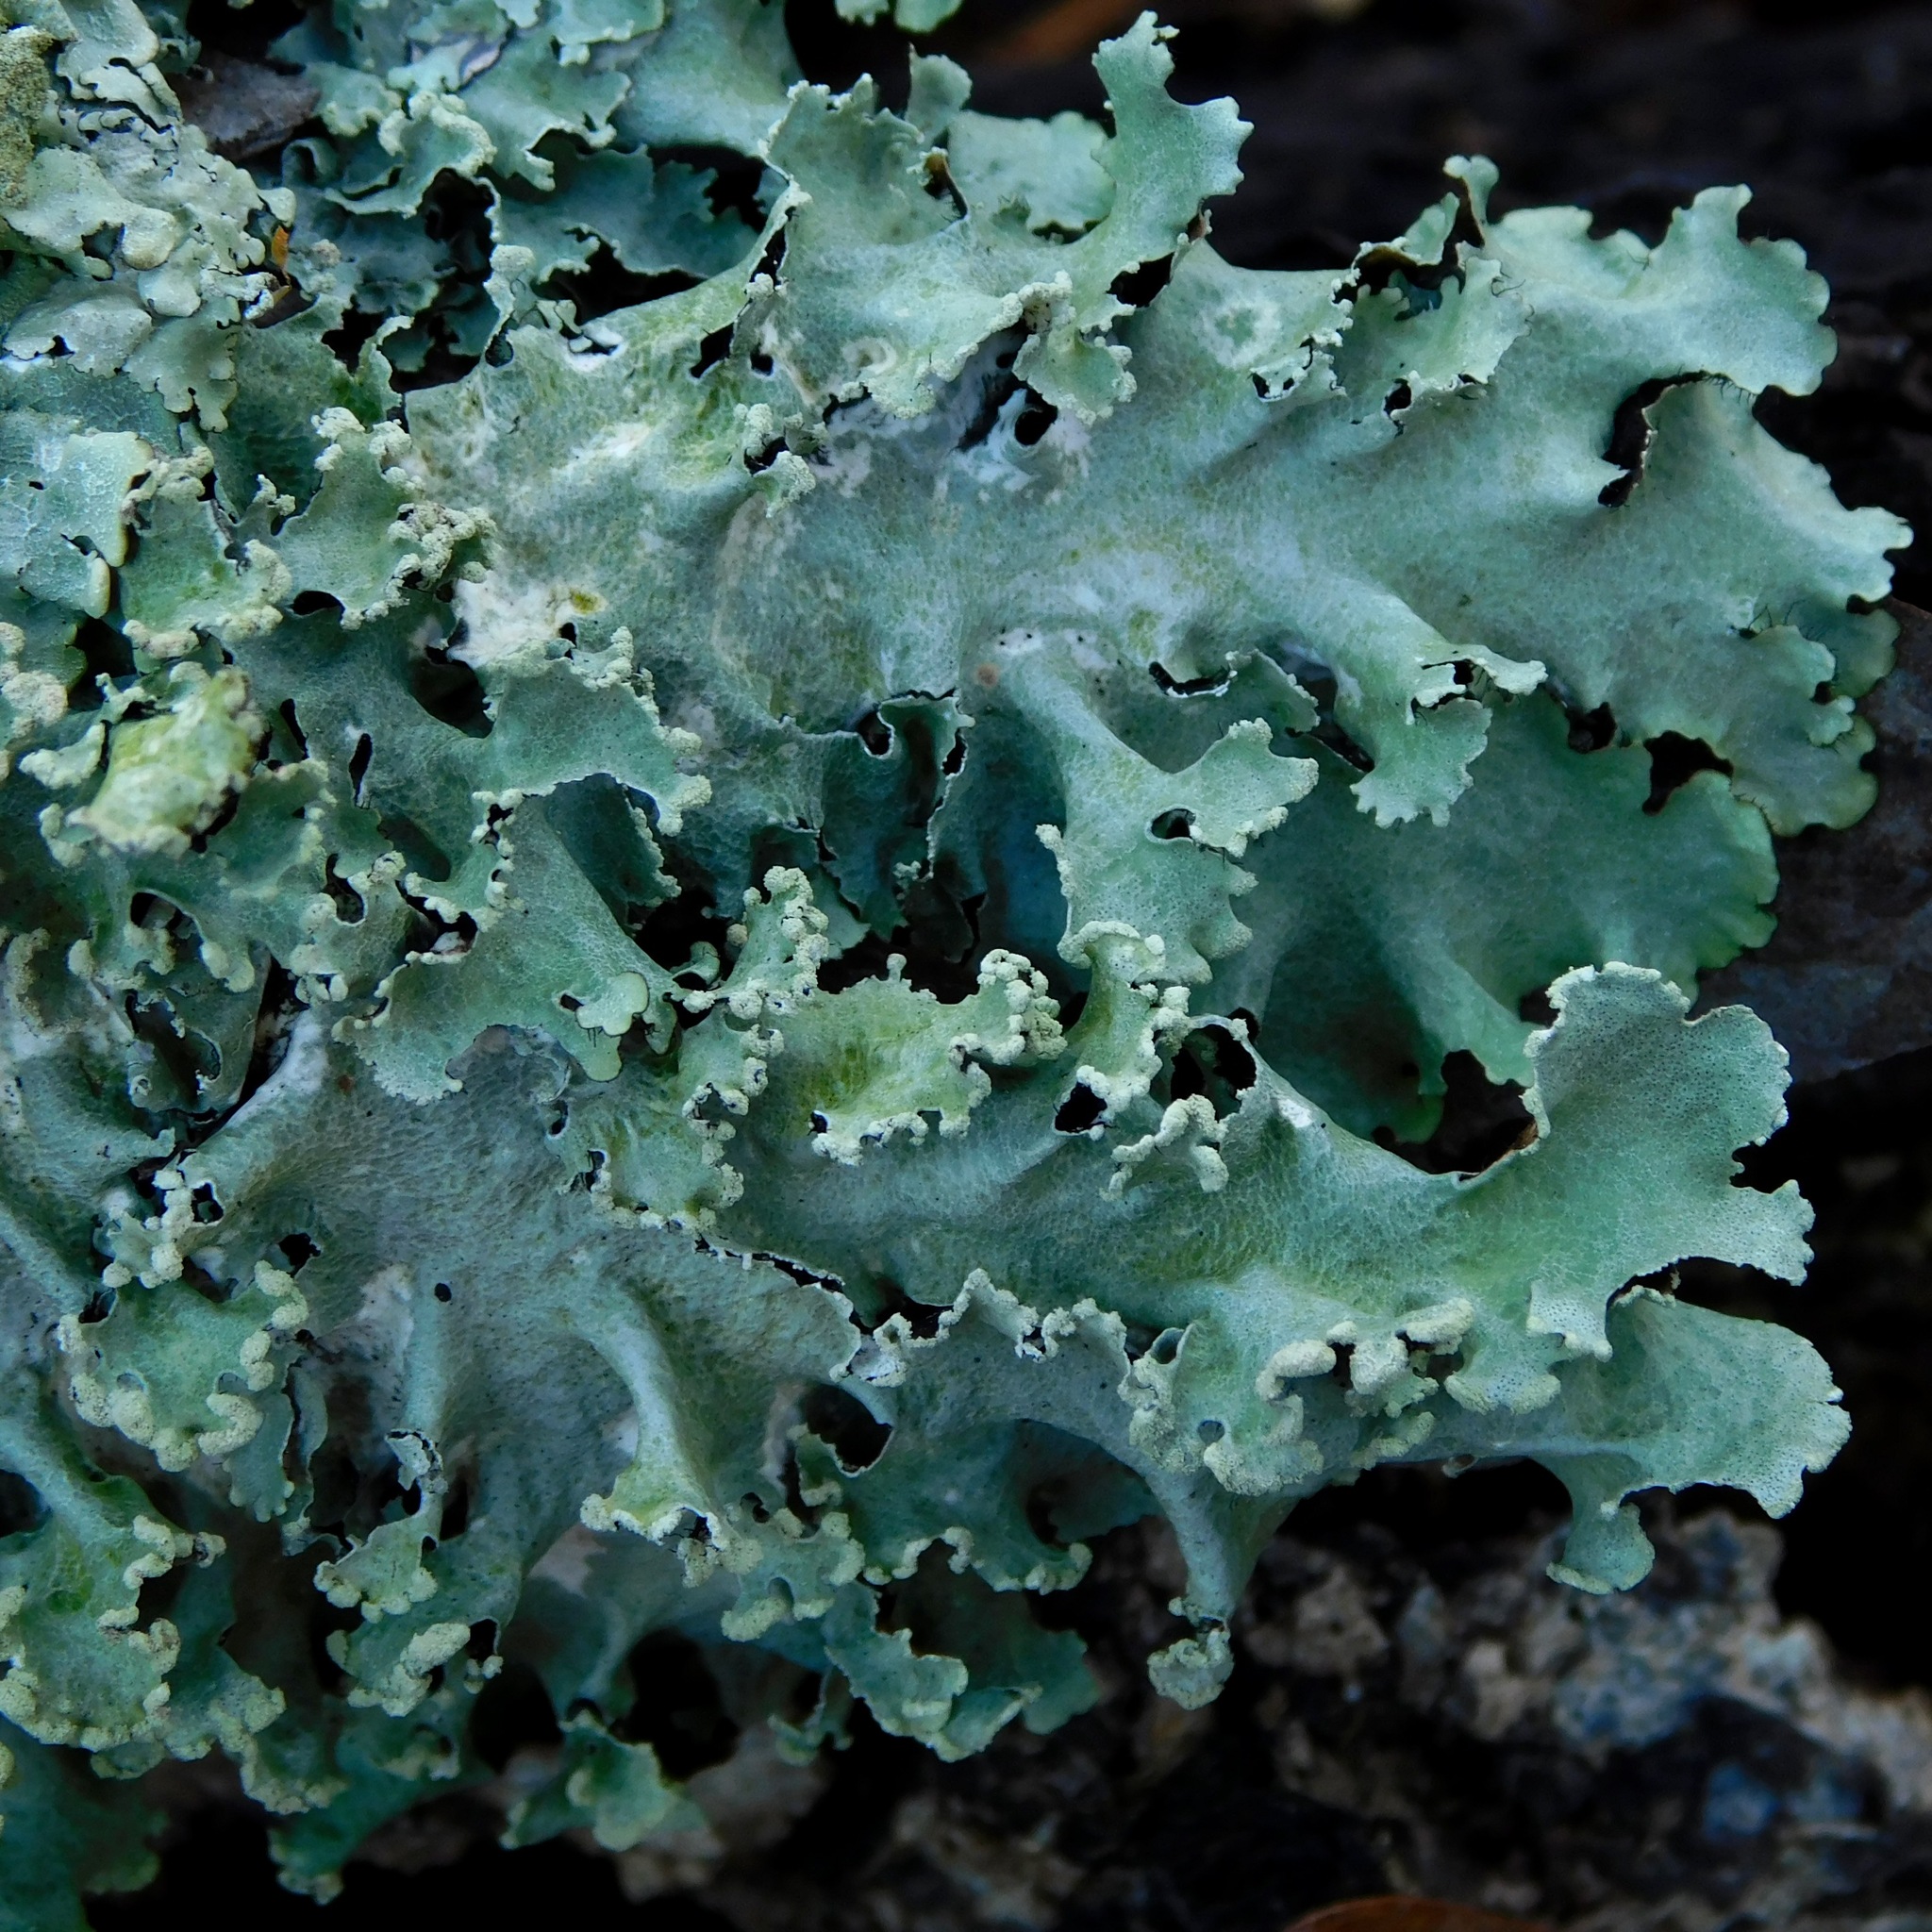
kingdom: Fungi
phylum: Ascomycota
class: Lecanoromycetes
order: Lecanorales
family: Parmeliaceae
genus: Parmotrema
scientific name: Parmotrema simulans
